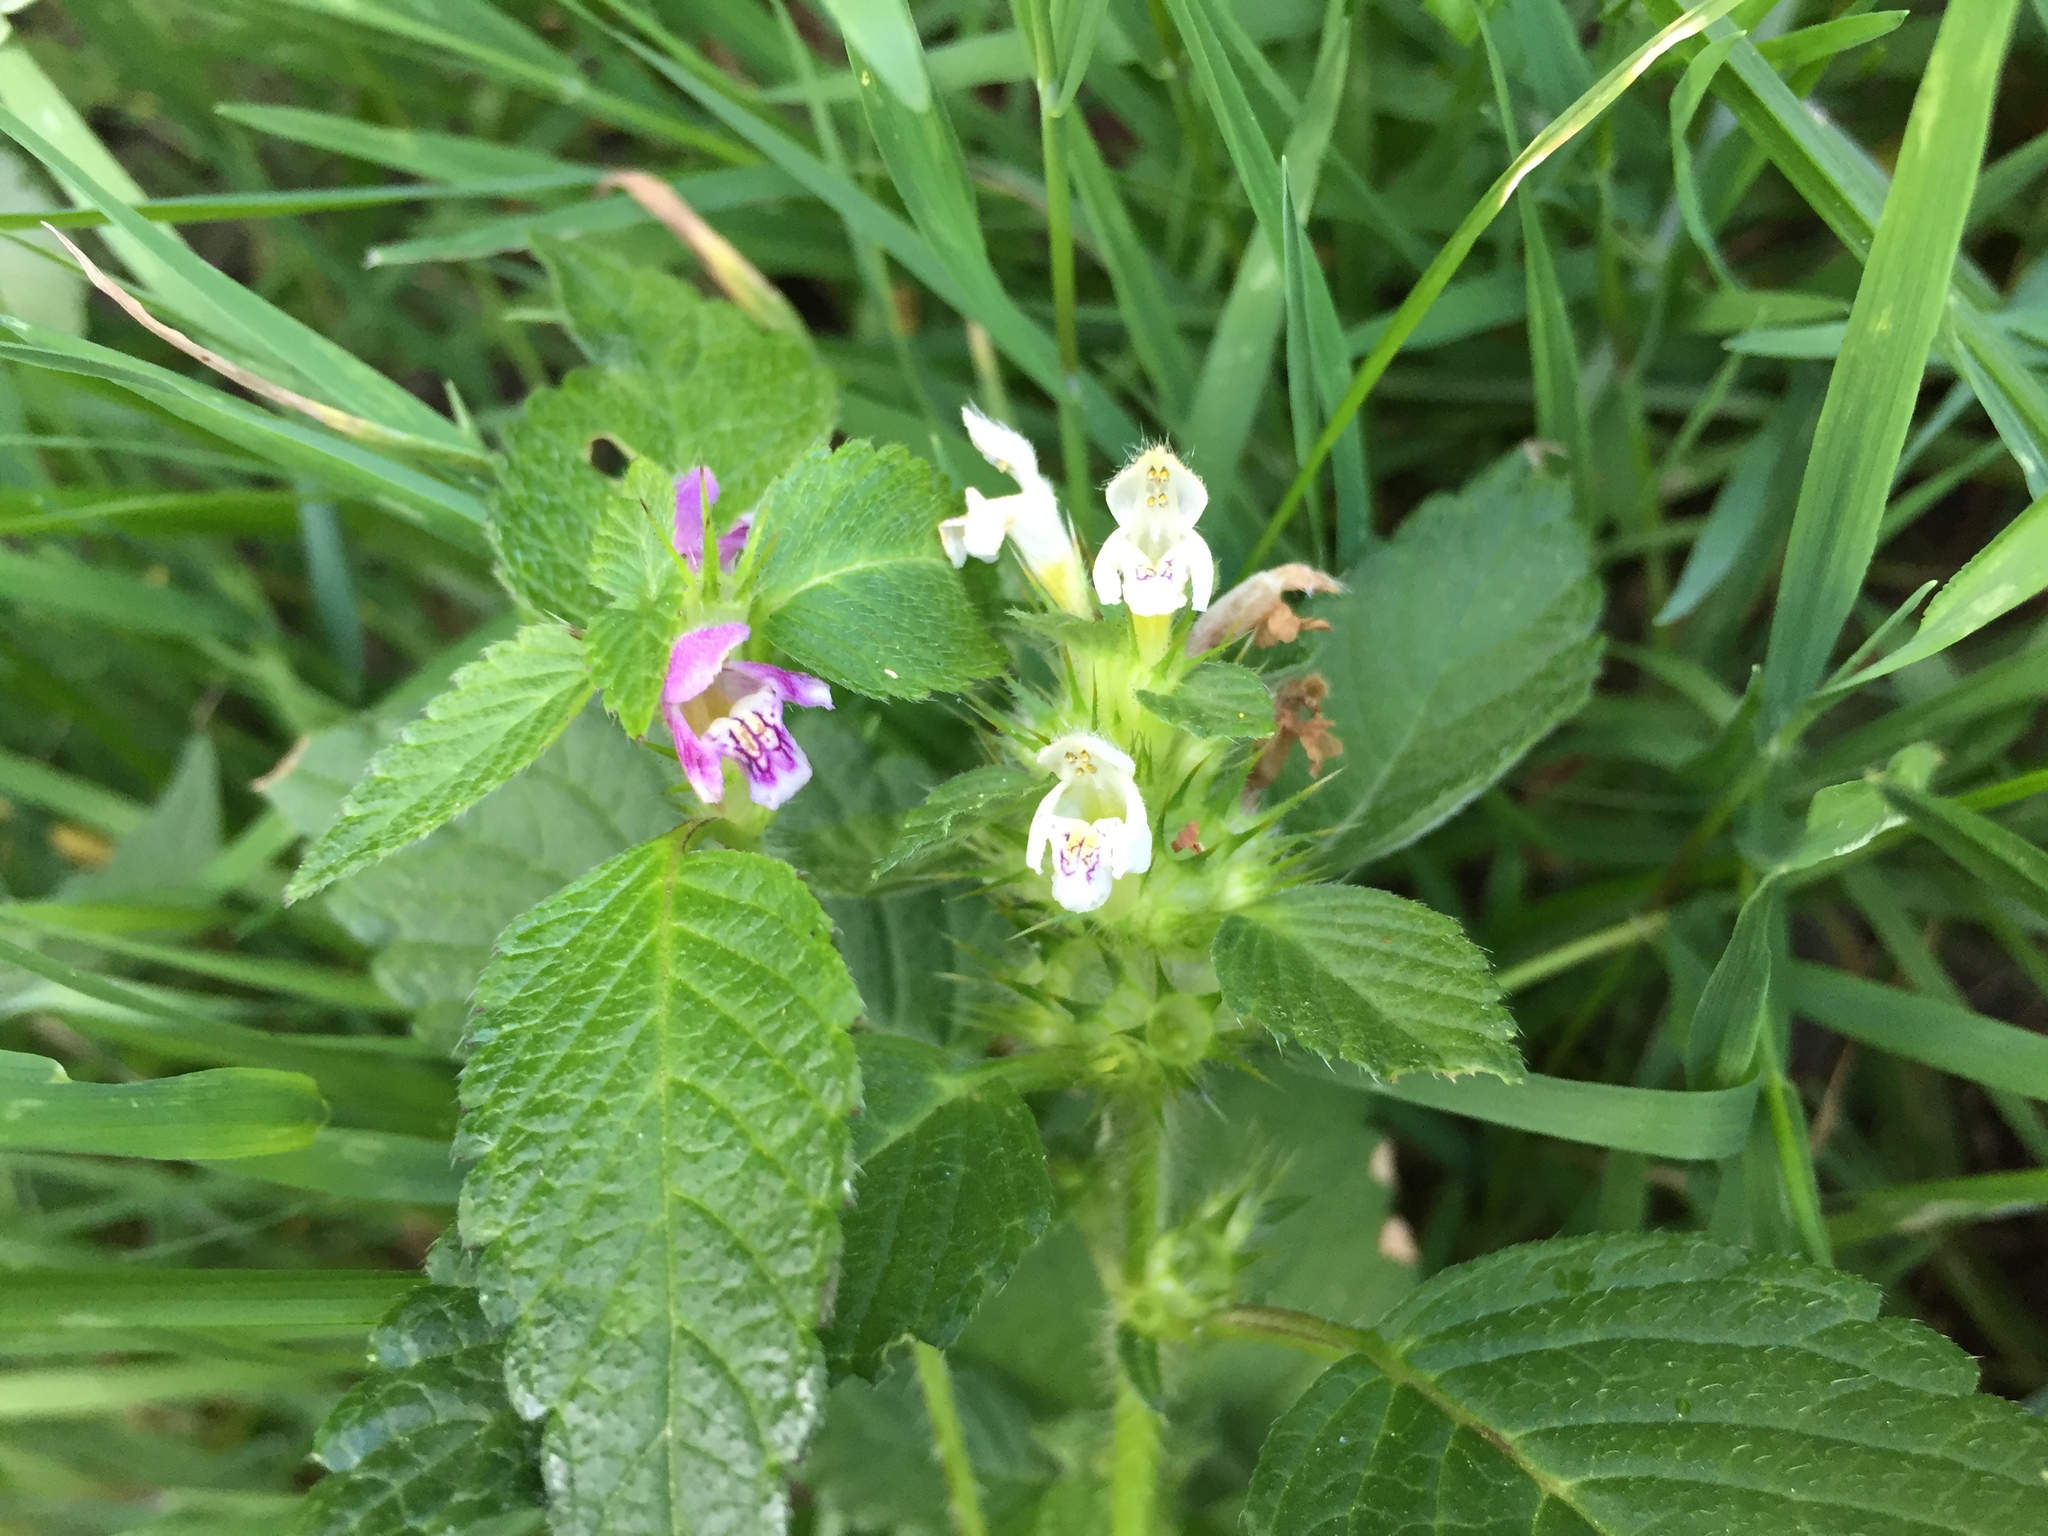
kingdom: Plantae
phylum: Tracheophyta
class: Magnoliopsida
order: Lamiales
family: Lamiaceae
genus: Galeopsis
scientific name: Galeopsis tetrahit
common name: Common hemp-nettle
